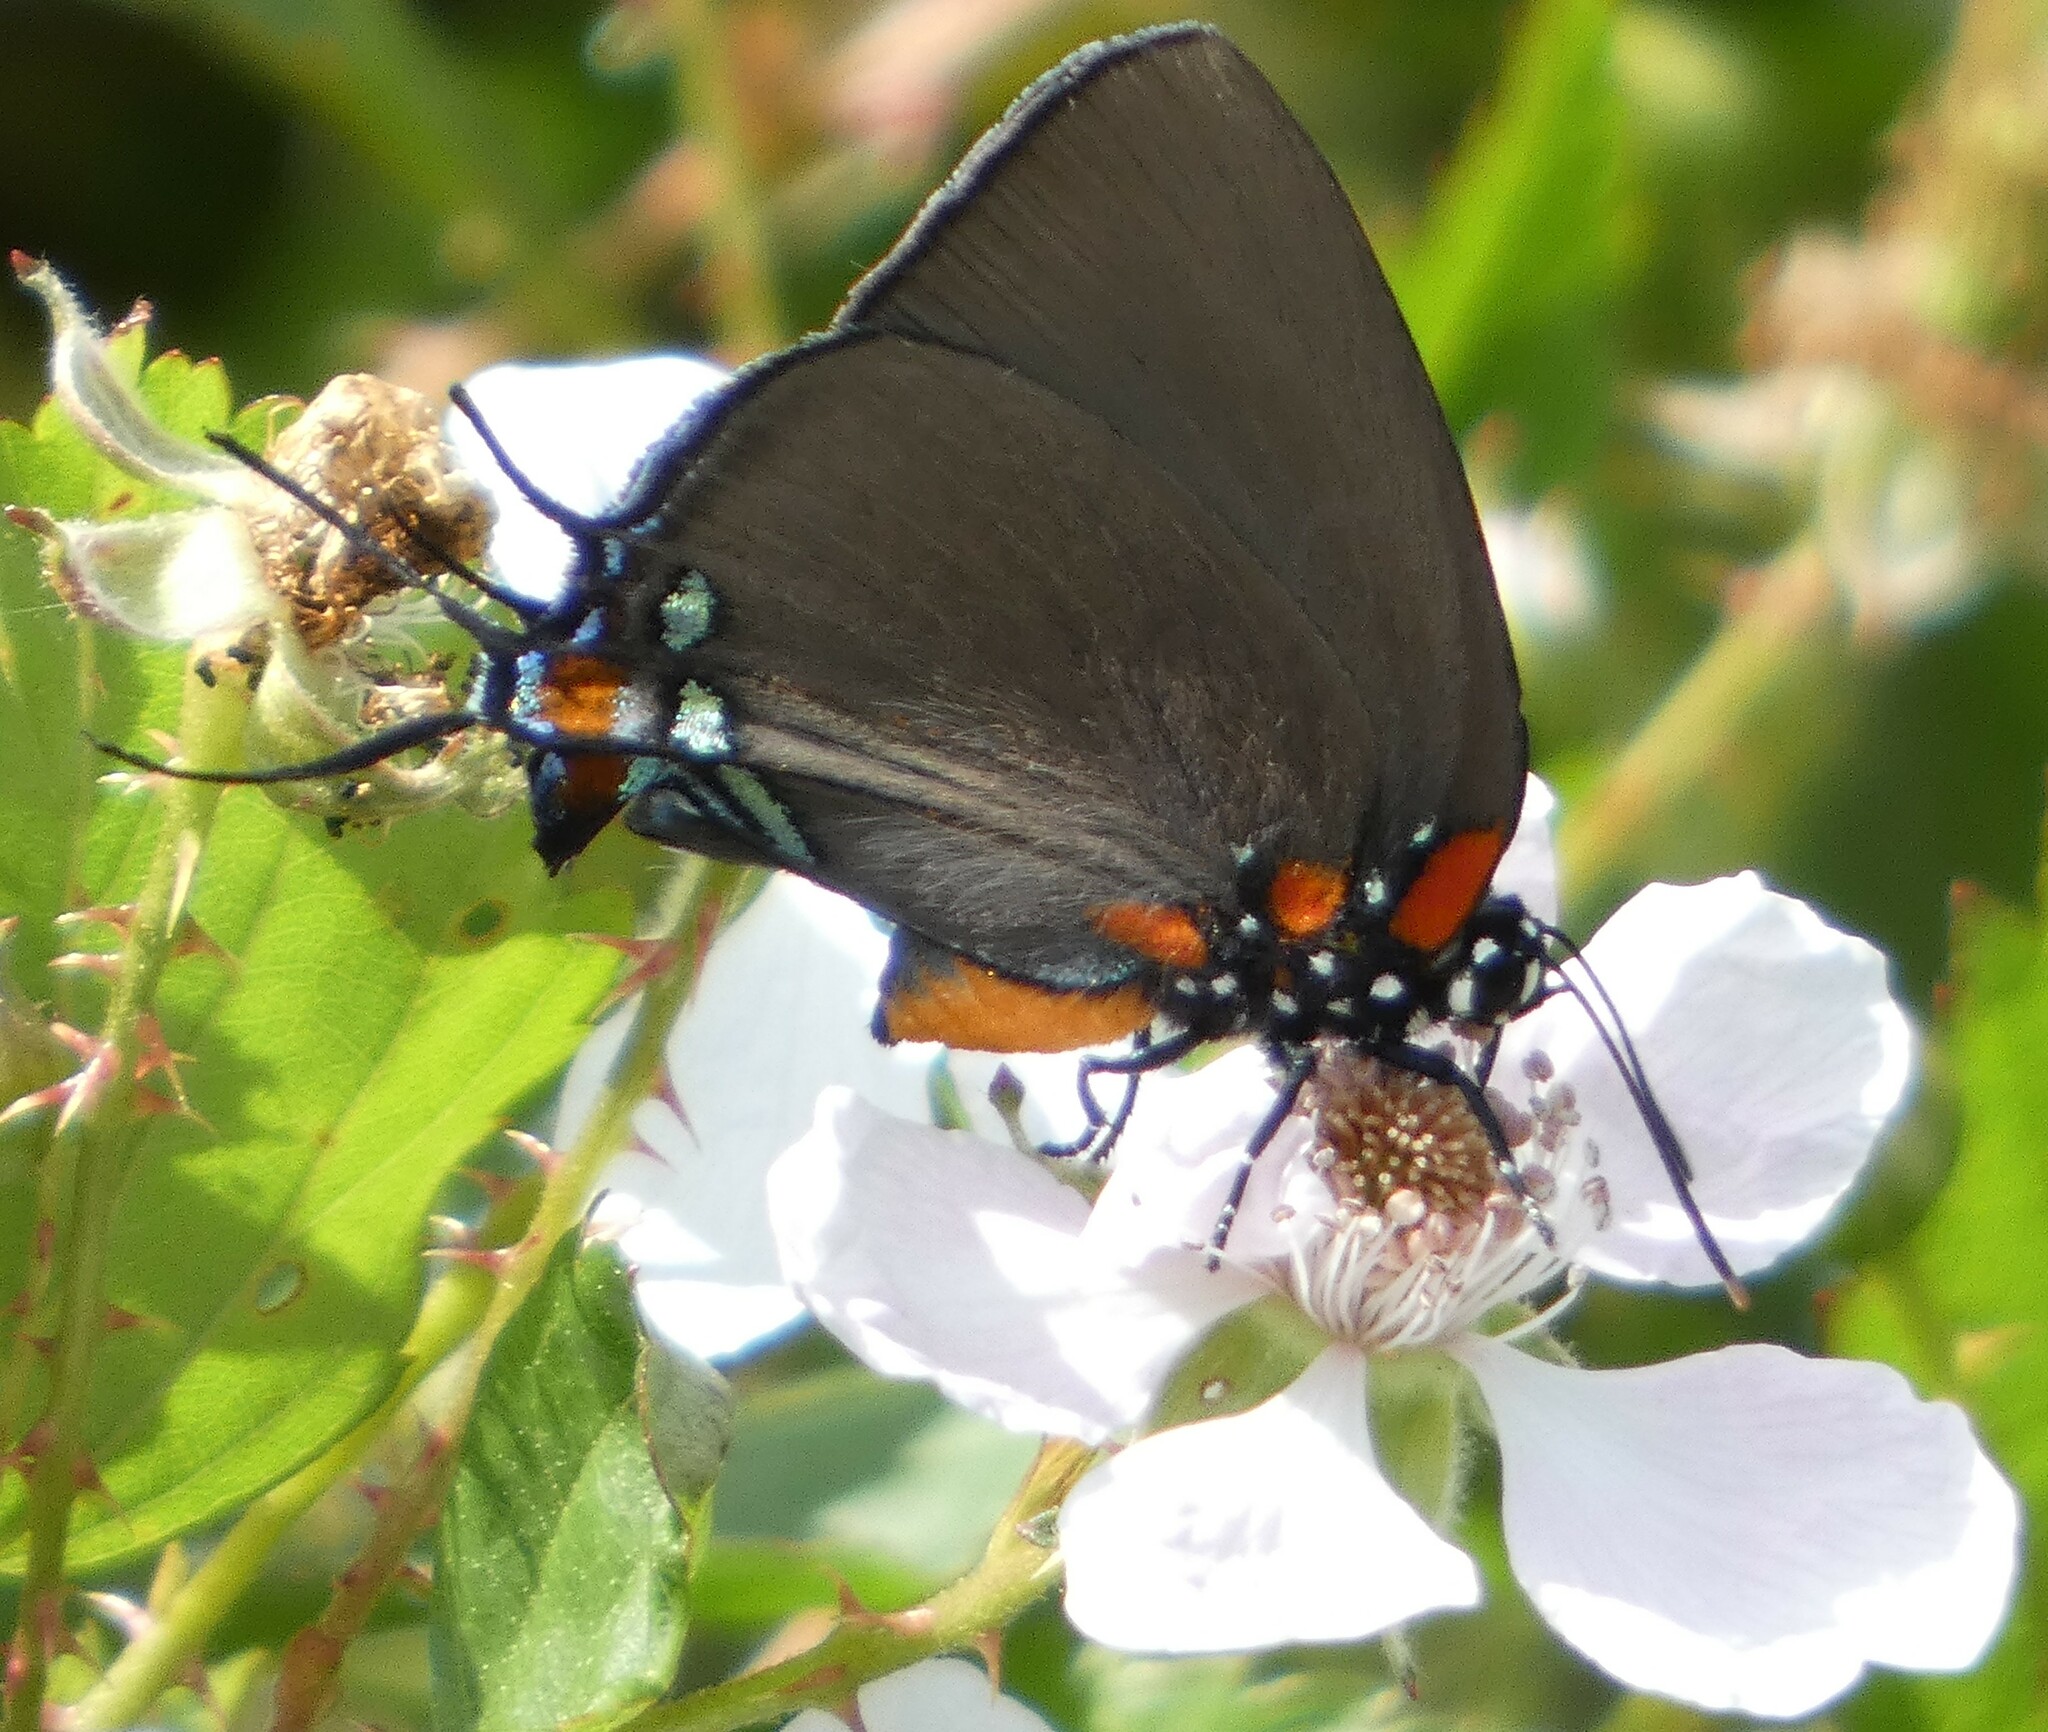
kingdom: Animalia
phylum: Arthropoda
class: Insecta
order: Lepidoptera
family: Lycaenidae
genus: Atlides
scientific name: Atlides halesus
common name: Great purple hairstreak
